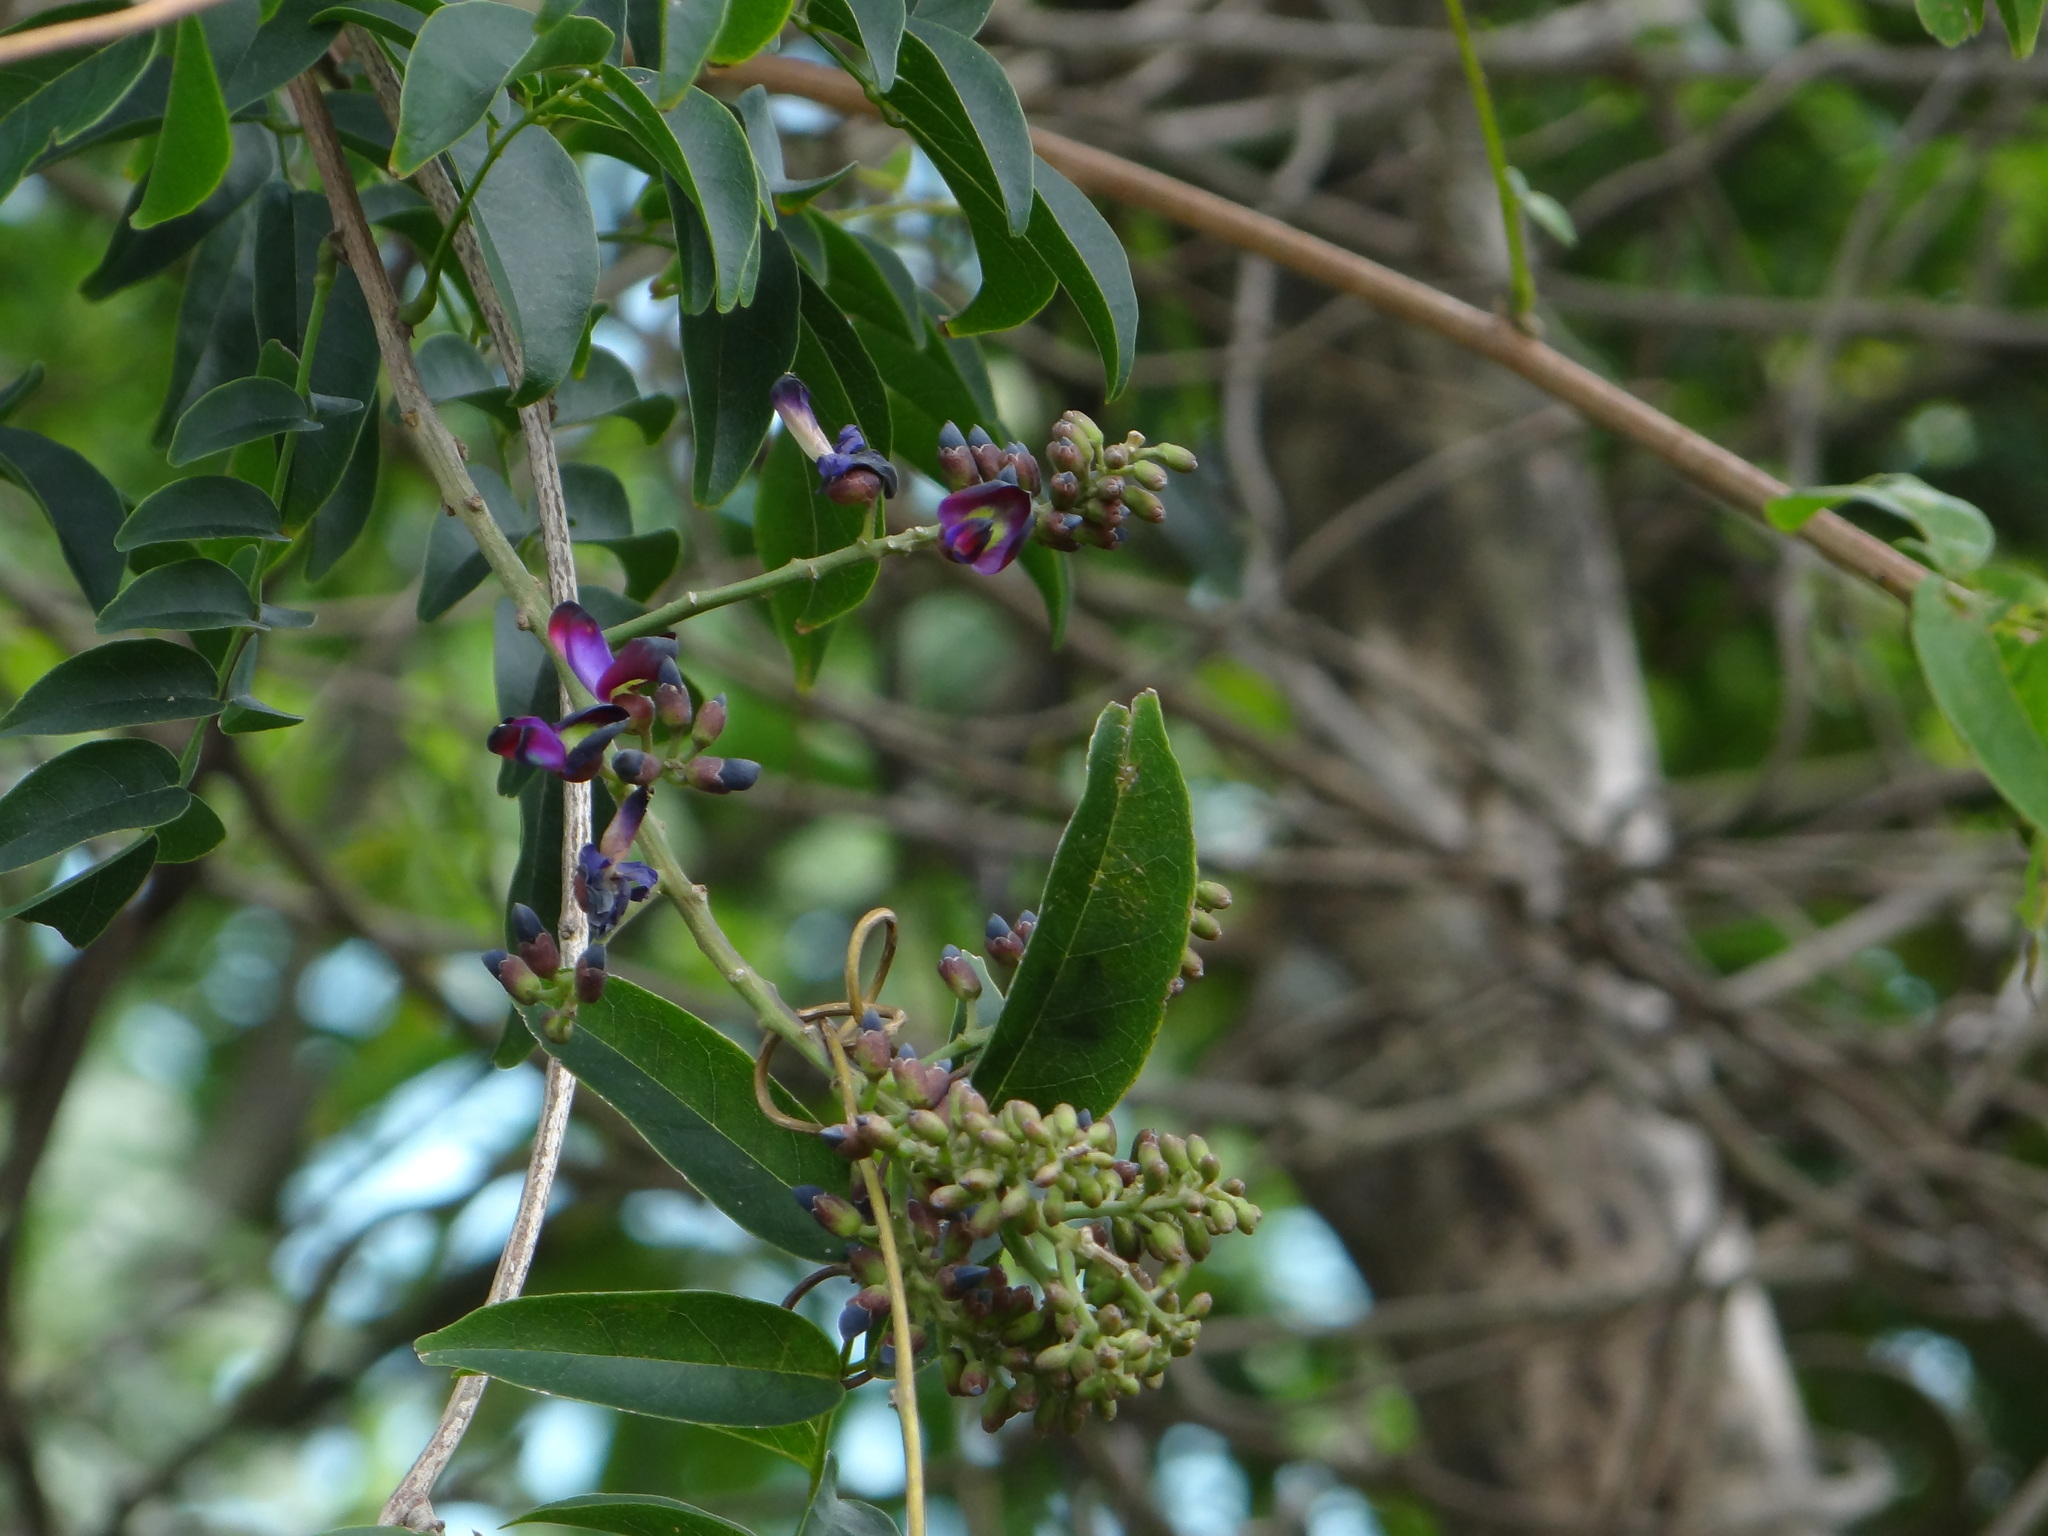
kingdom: Plantae
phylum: Tracheophyta
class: Magnoliopsida
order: Fabales
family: Fabaceae
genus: Wisteriopsis
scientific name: Wisteriopsis reticulata
